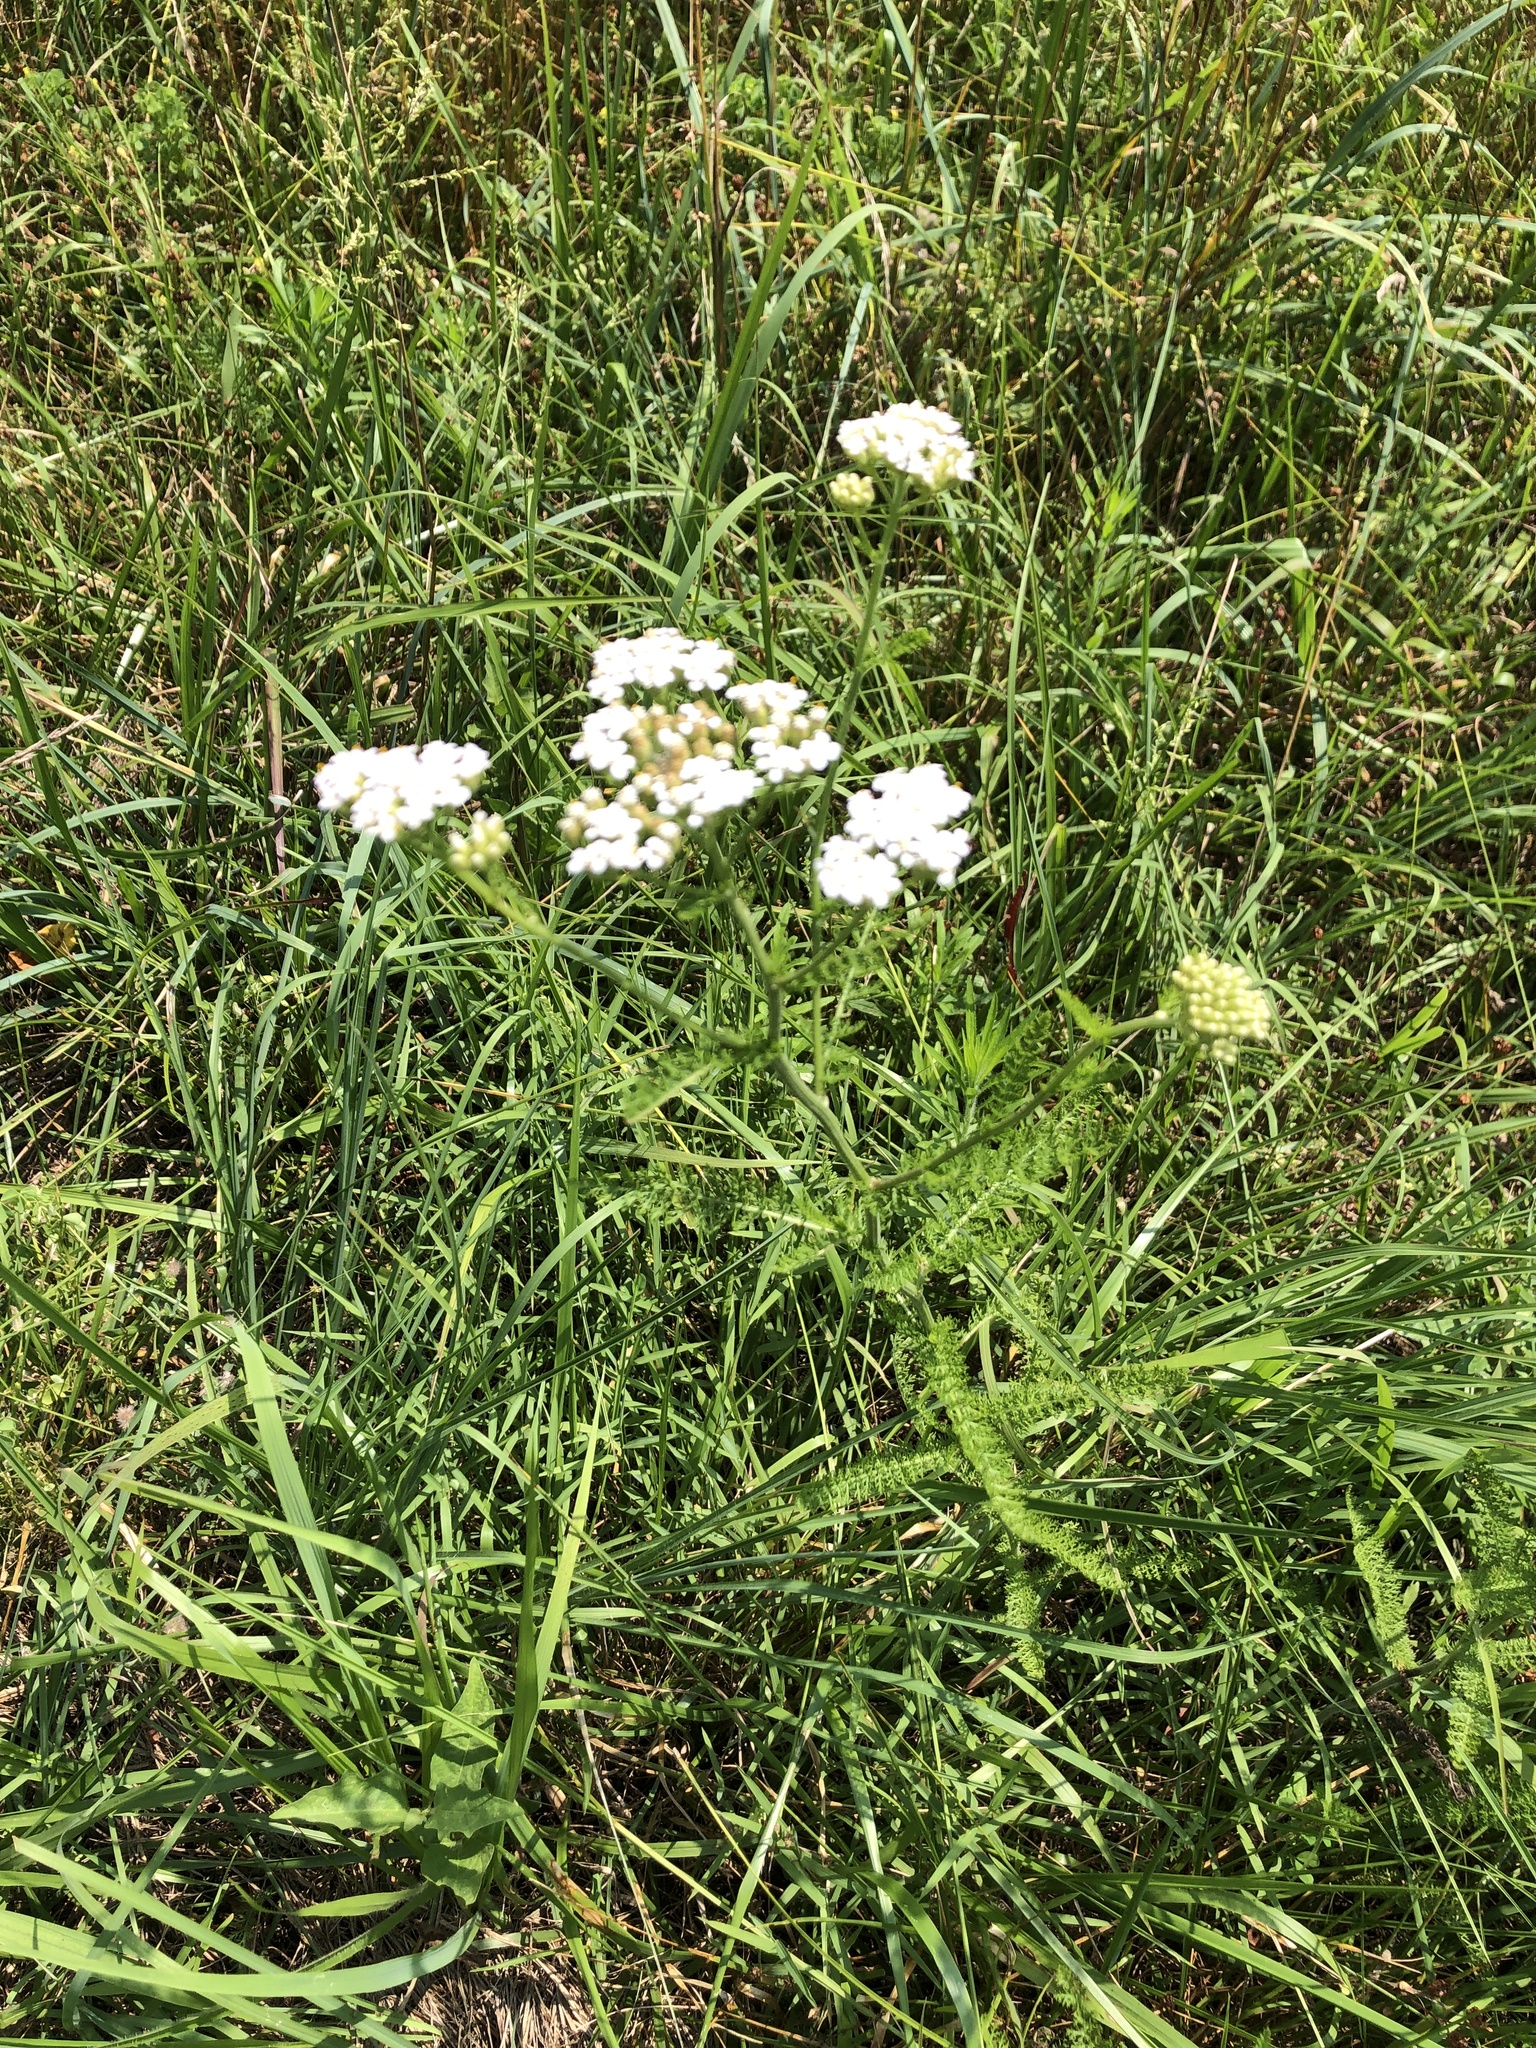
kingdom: Plantae
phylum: Tracheophyta
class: Magnoliopsida
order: Asterales
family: Asteraceae
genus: Achillea
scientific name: Achillea millefolium
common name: Yarrow
